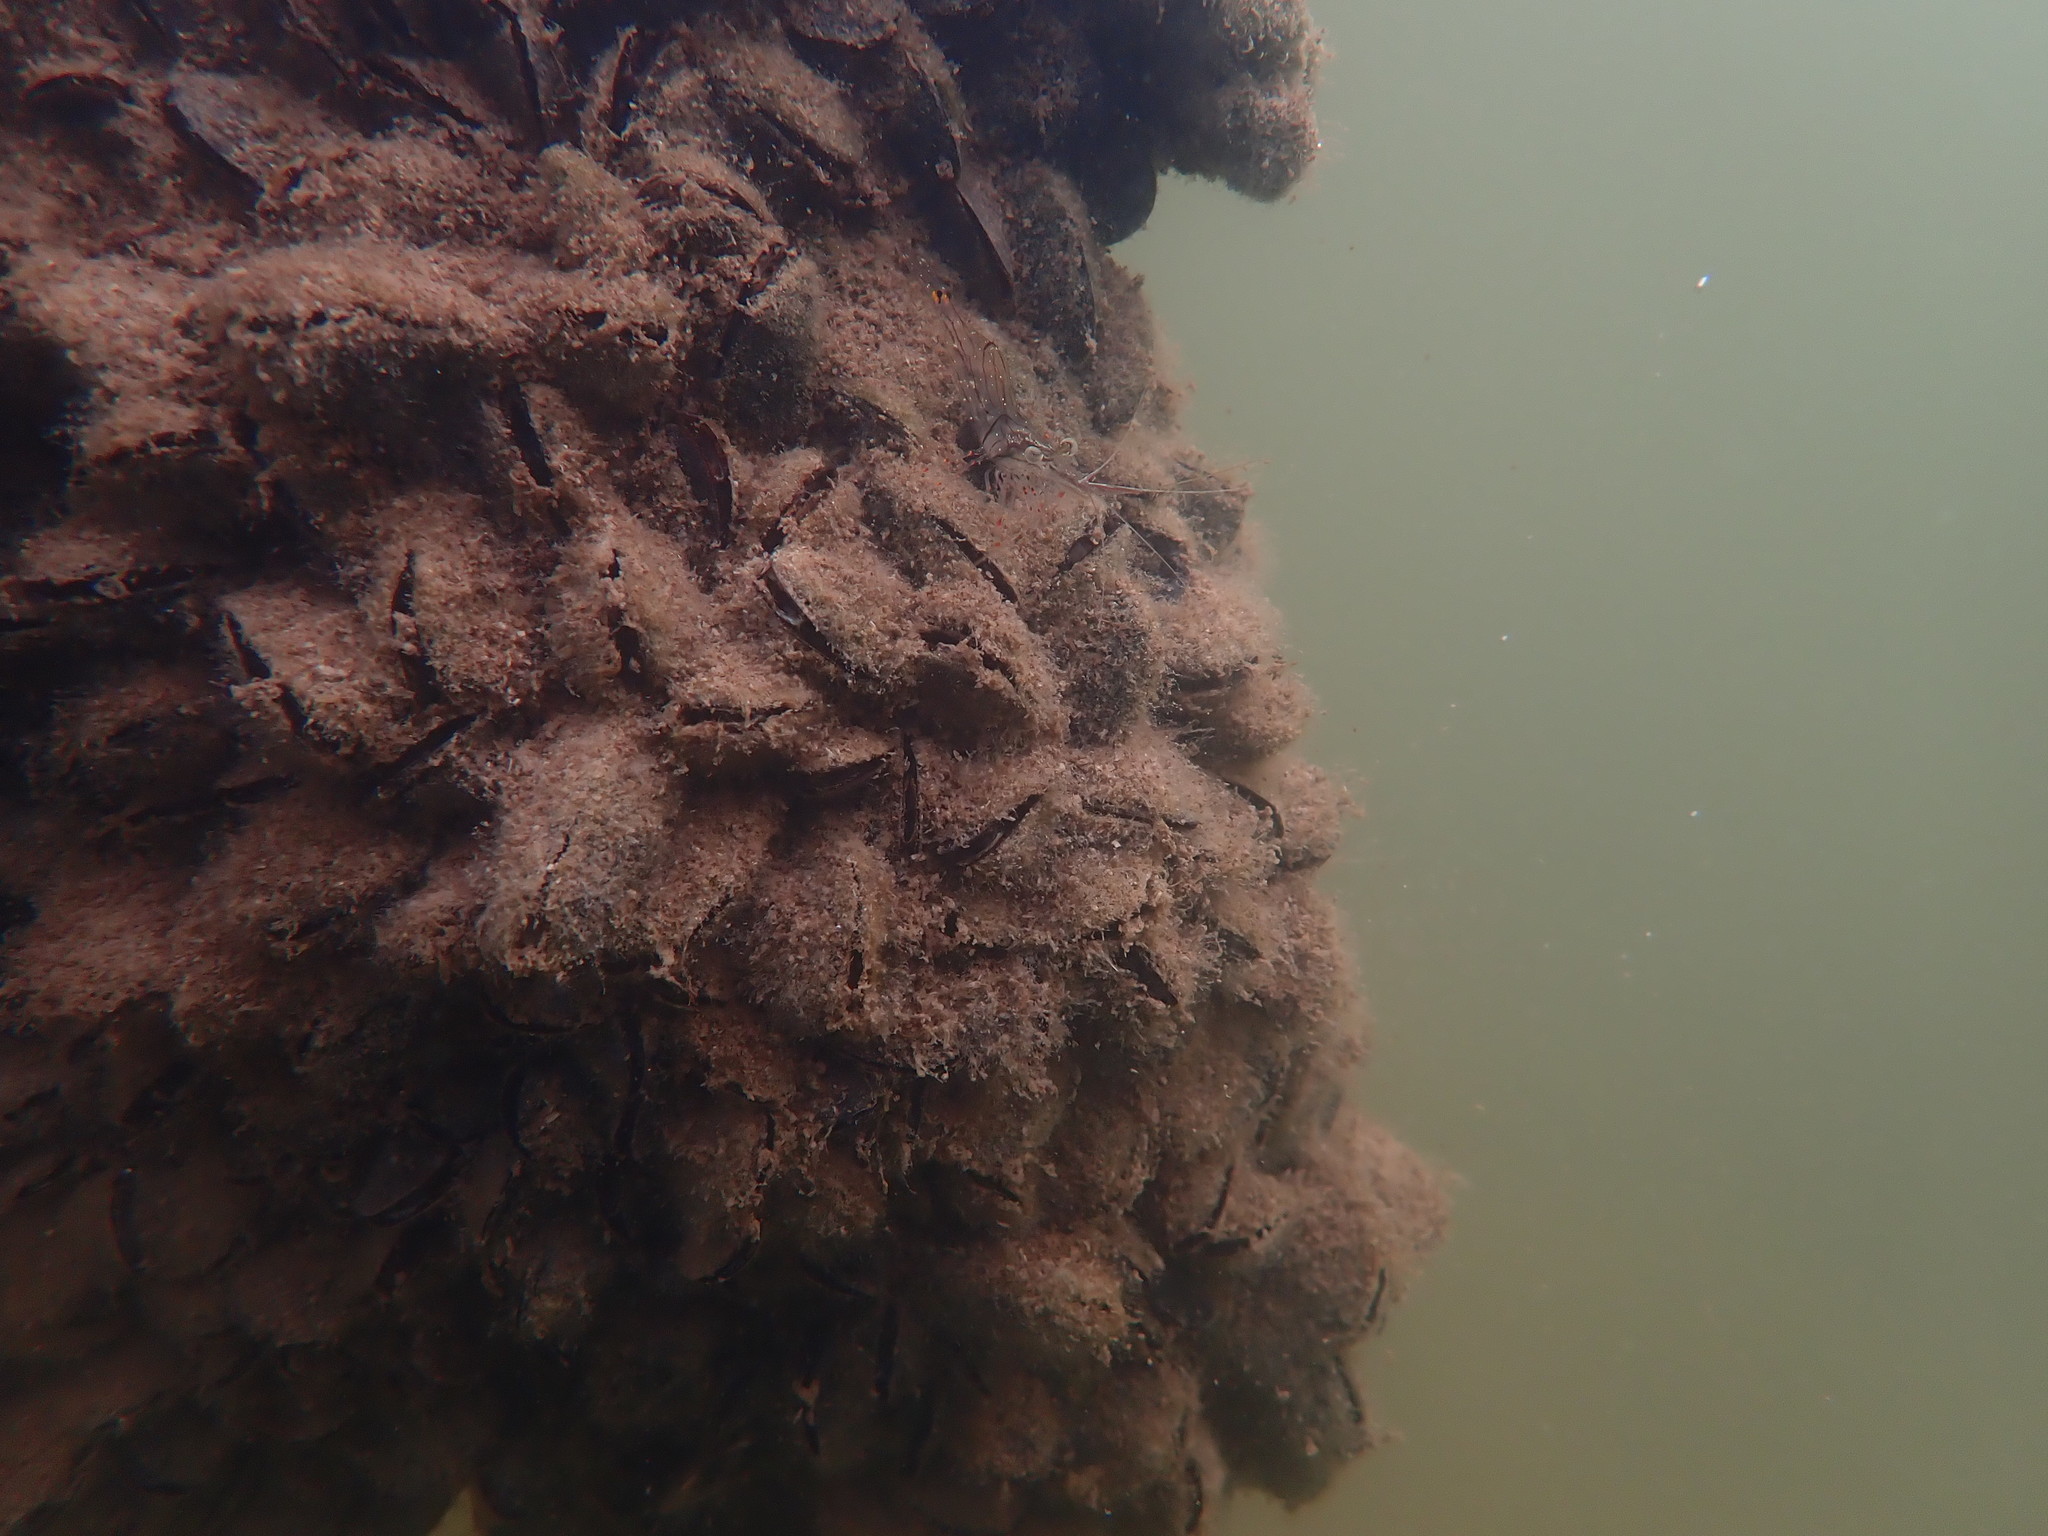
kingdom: Animalia
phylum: Mollusca
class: Bivalvia
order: Mytilida
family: Mytilidae
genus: Xenostrobus
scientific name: Xenostrobus securis
